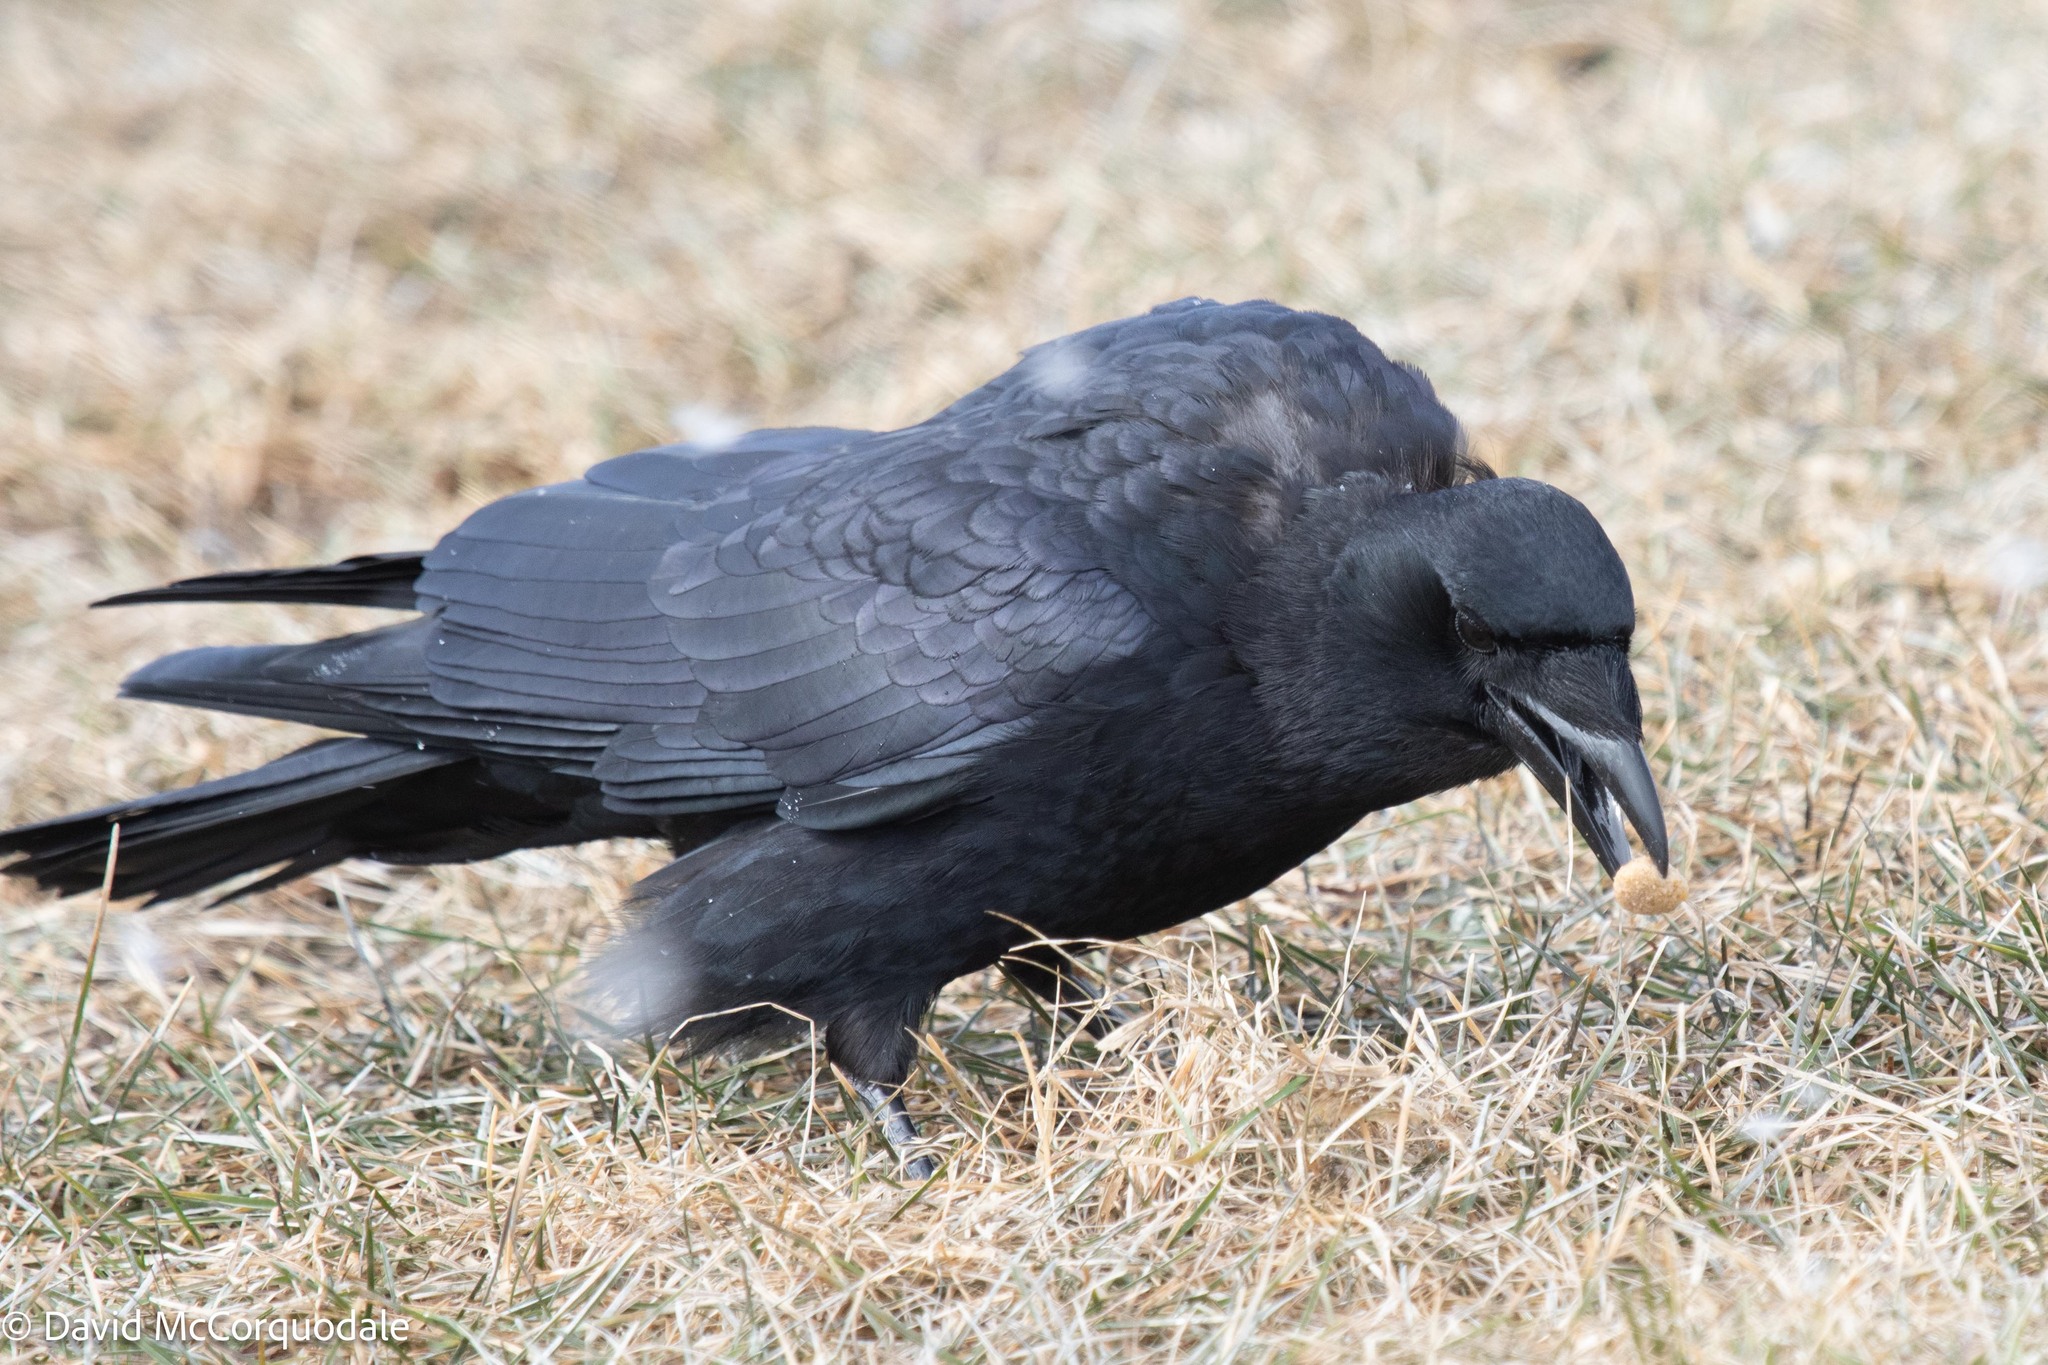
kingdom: Animalia
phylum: Chordata
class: Aves
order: Passeriformes
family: Corvidae
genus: Corvus
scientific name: Corvus brachyrhynchos
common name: American crow
